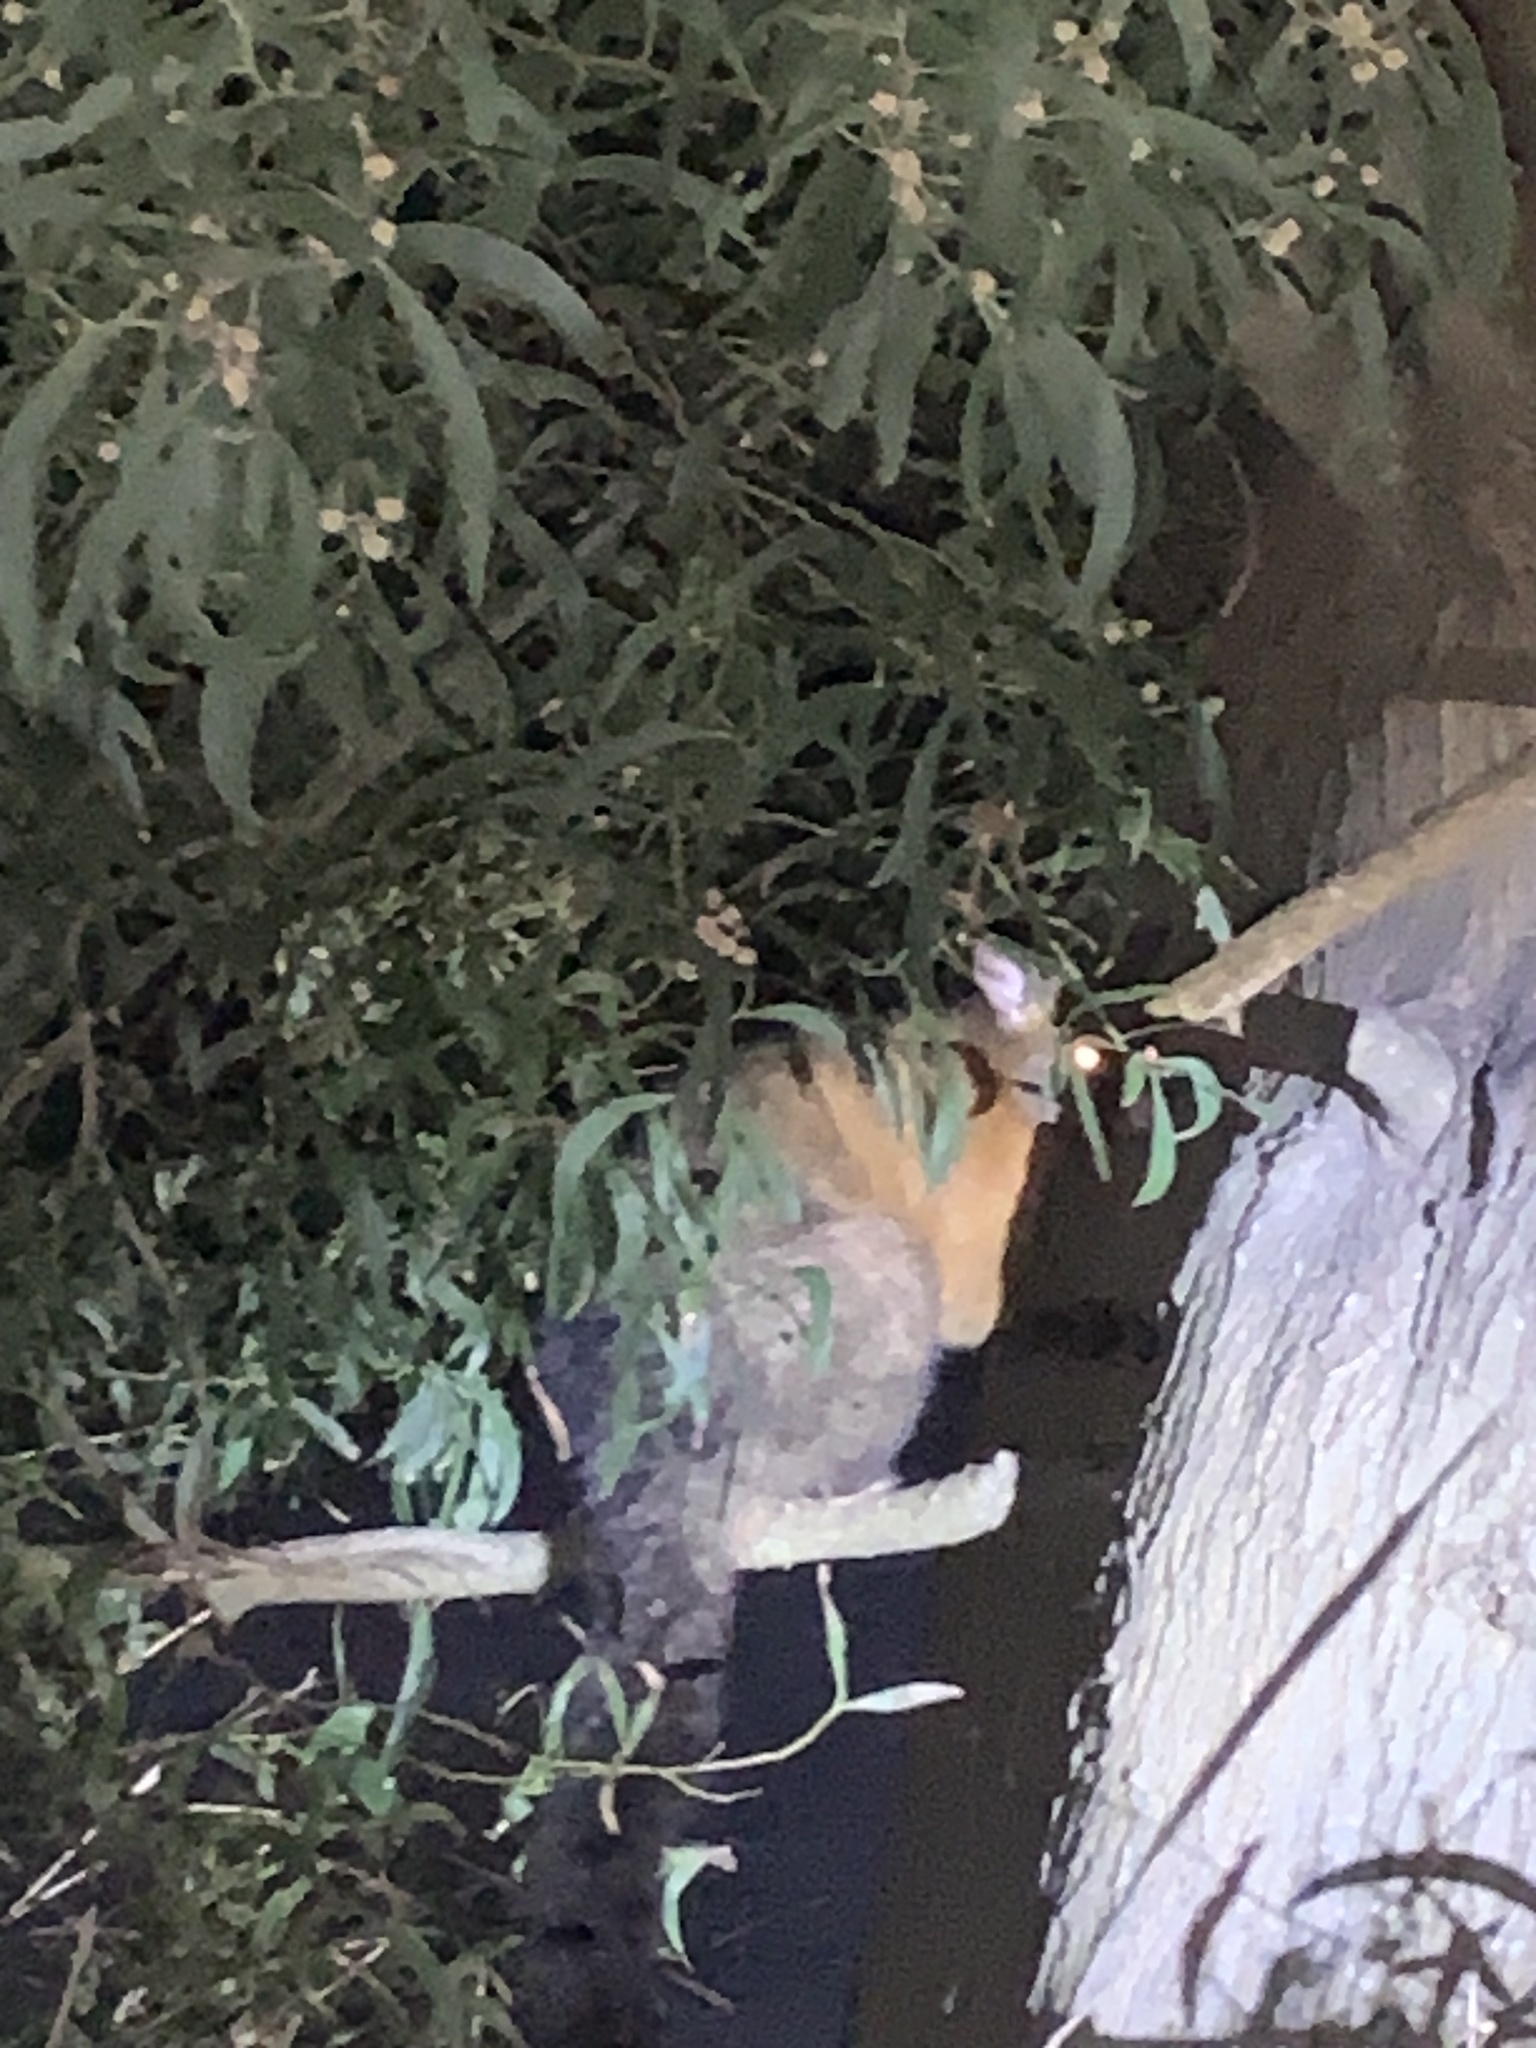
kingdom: Animalia
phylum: Chordata
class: Mammalia
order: Diprotodontia
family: Phalangeridae
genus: Trichosurus
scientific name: Trichosurus vulpecula
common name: Common brushtail
